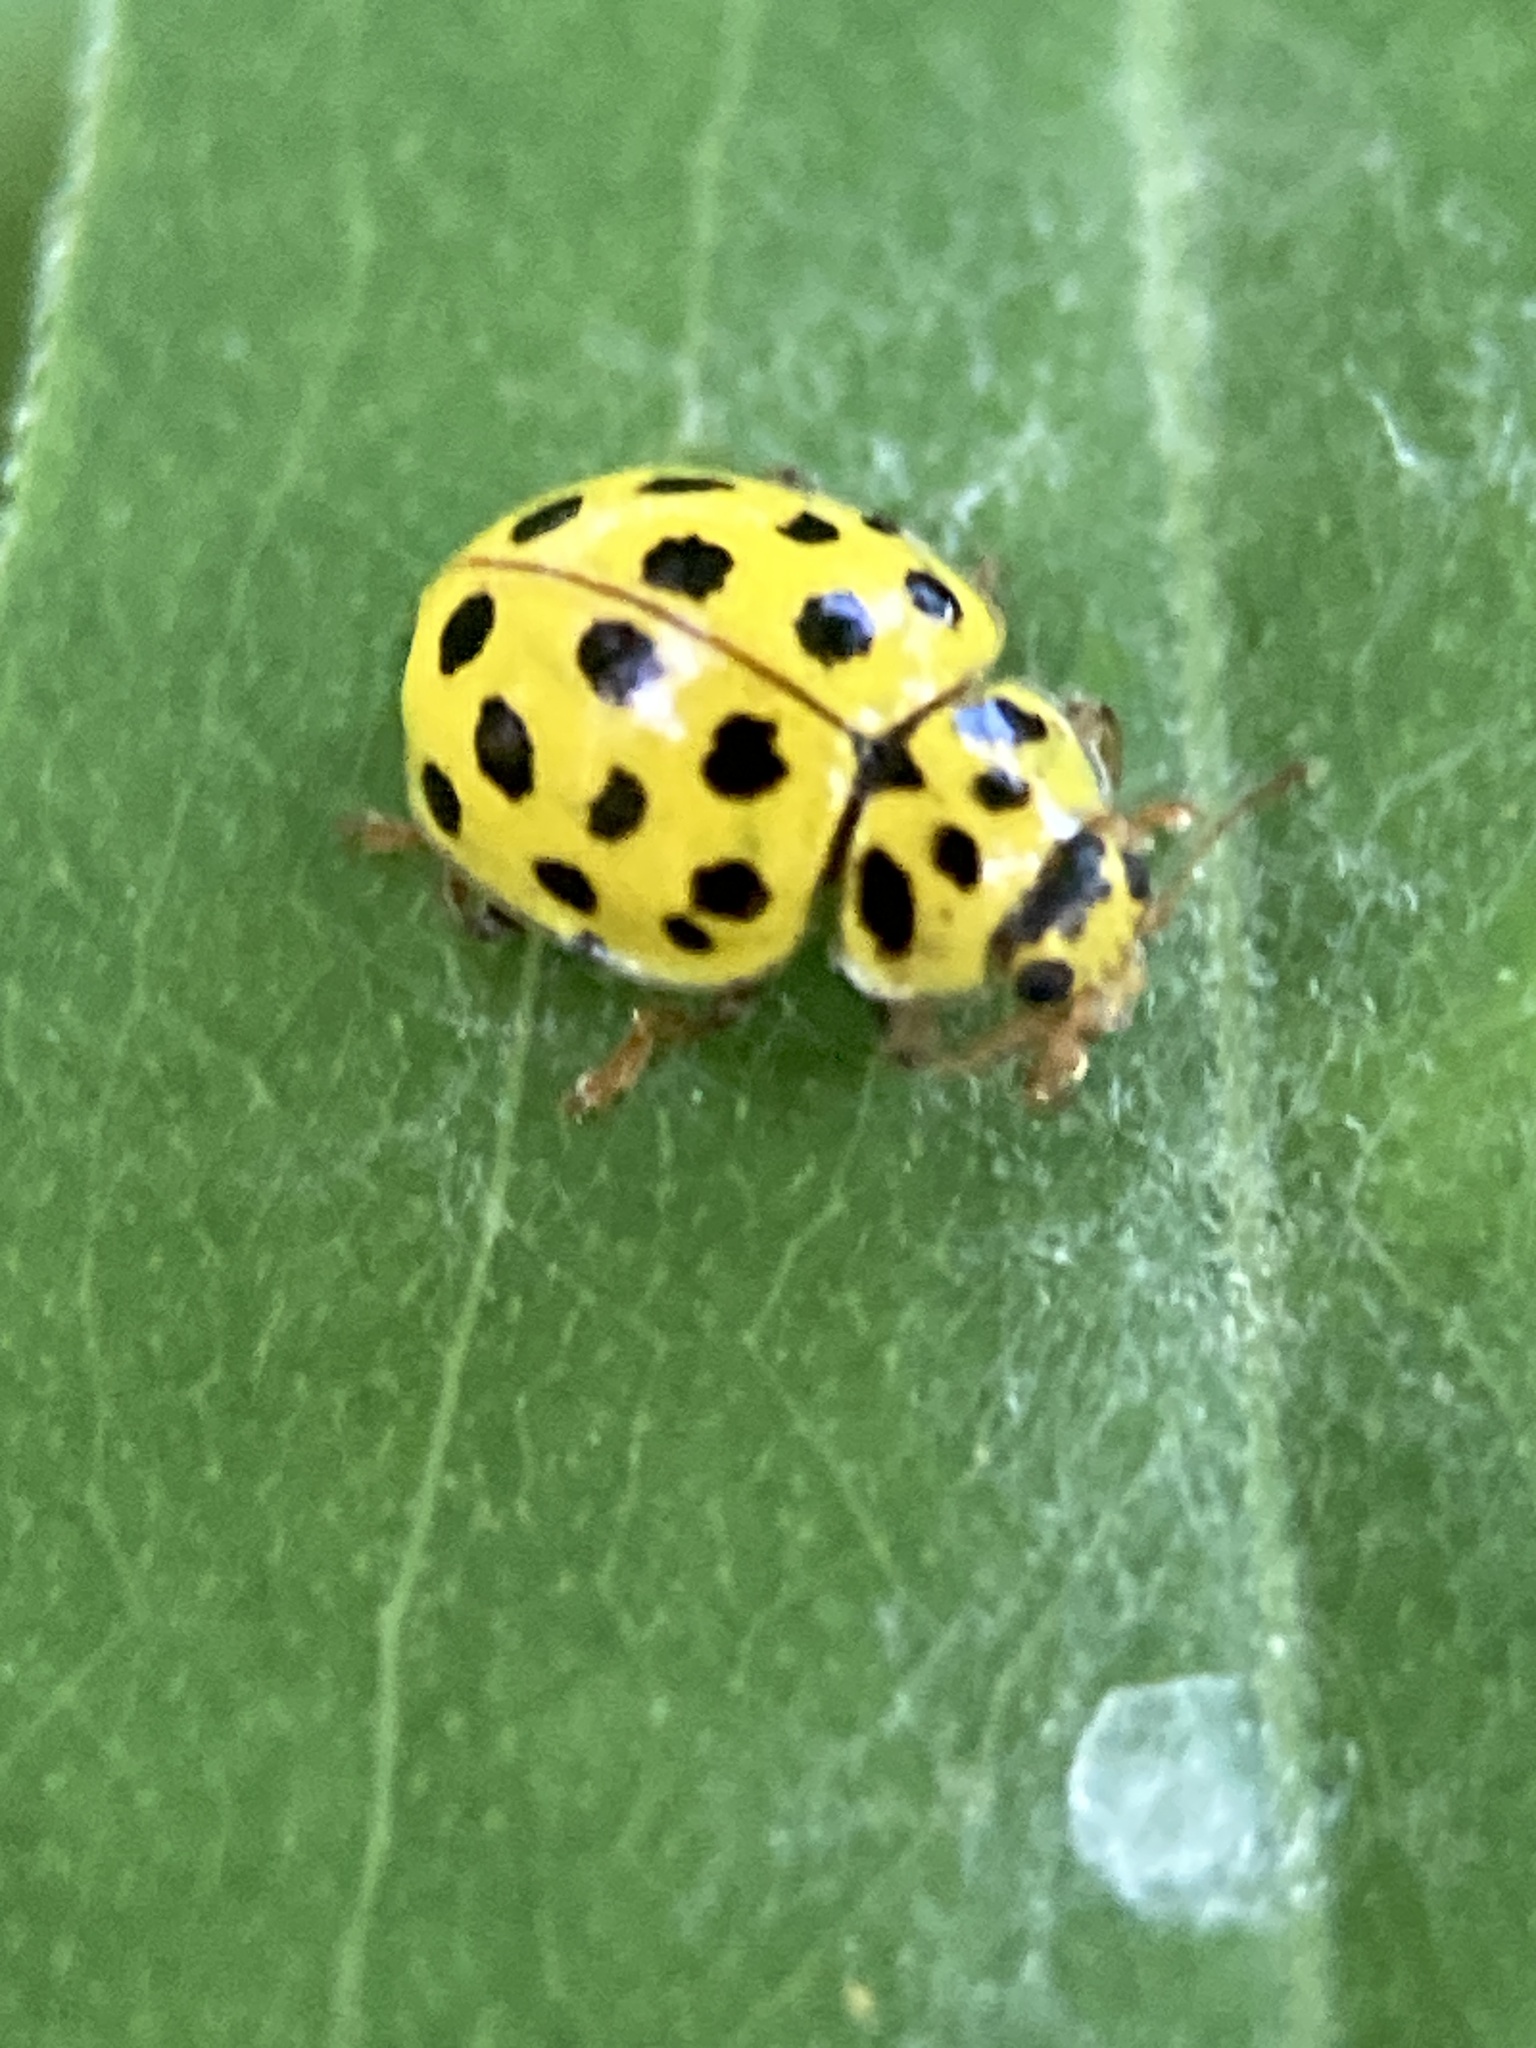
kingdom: Animalia
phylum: Arthropoda
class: Insecta
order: Coleoptera
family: Coccinellidae
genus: Psyllobora
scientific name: Psyllobora vigintiduopunctata
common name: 22-spot ladybird
